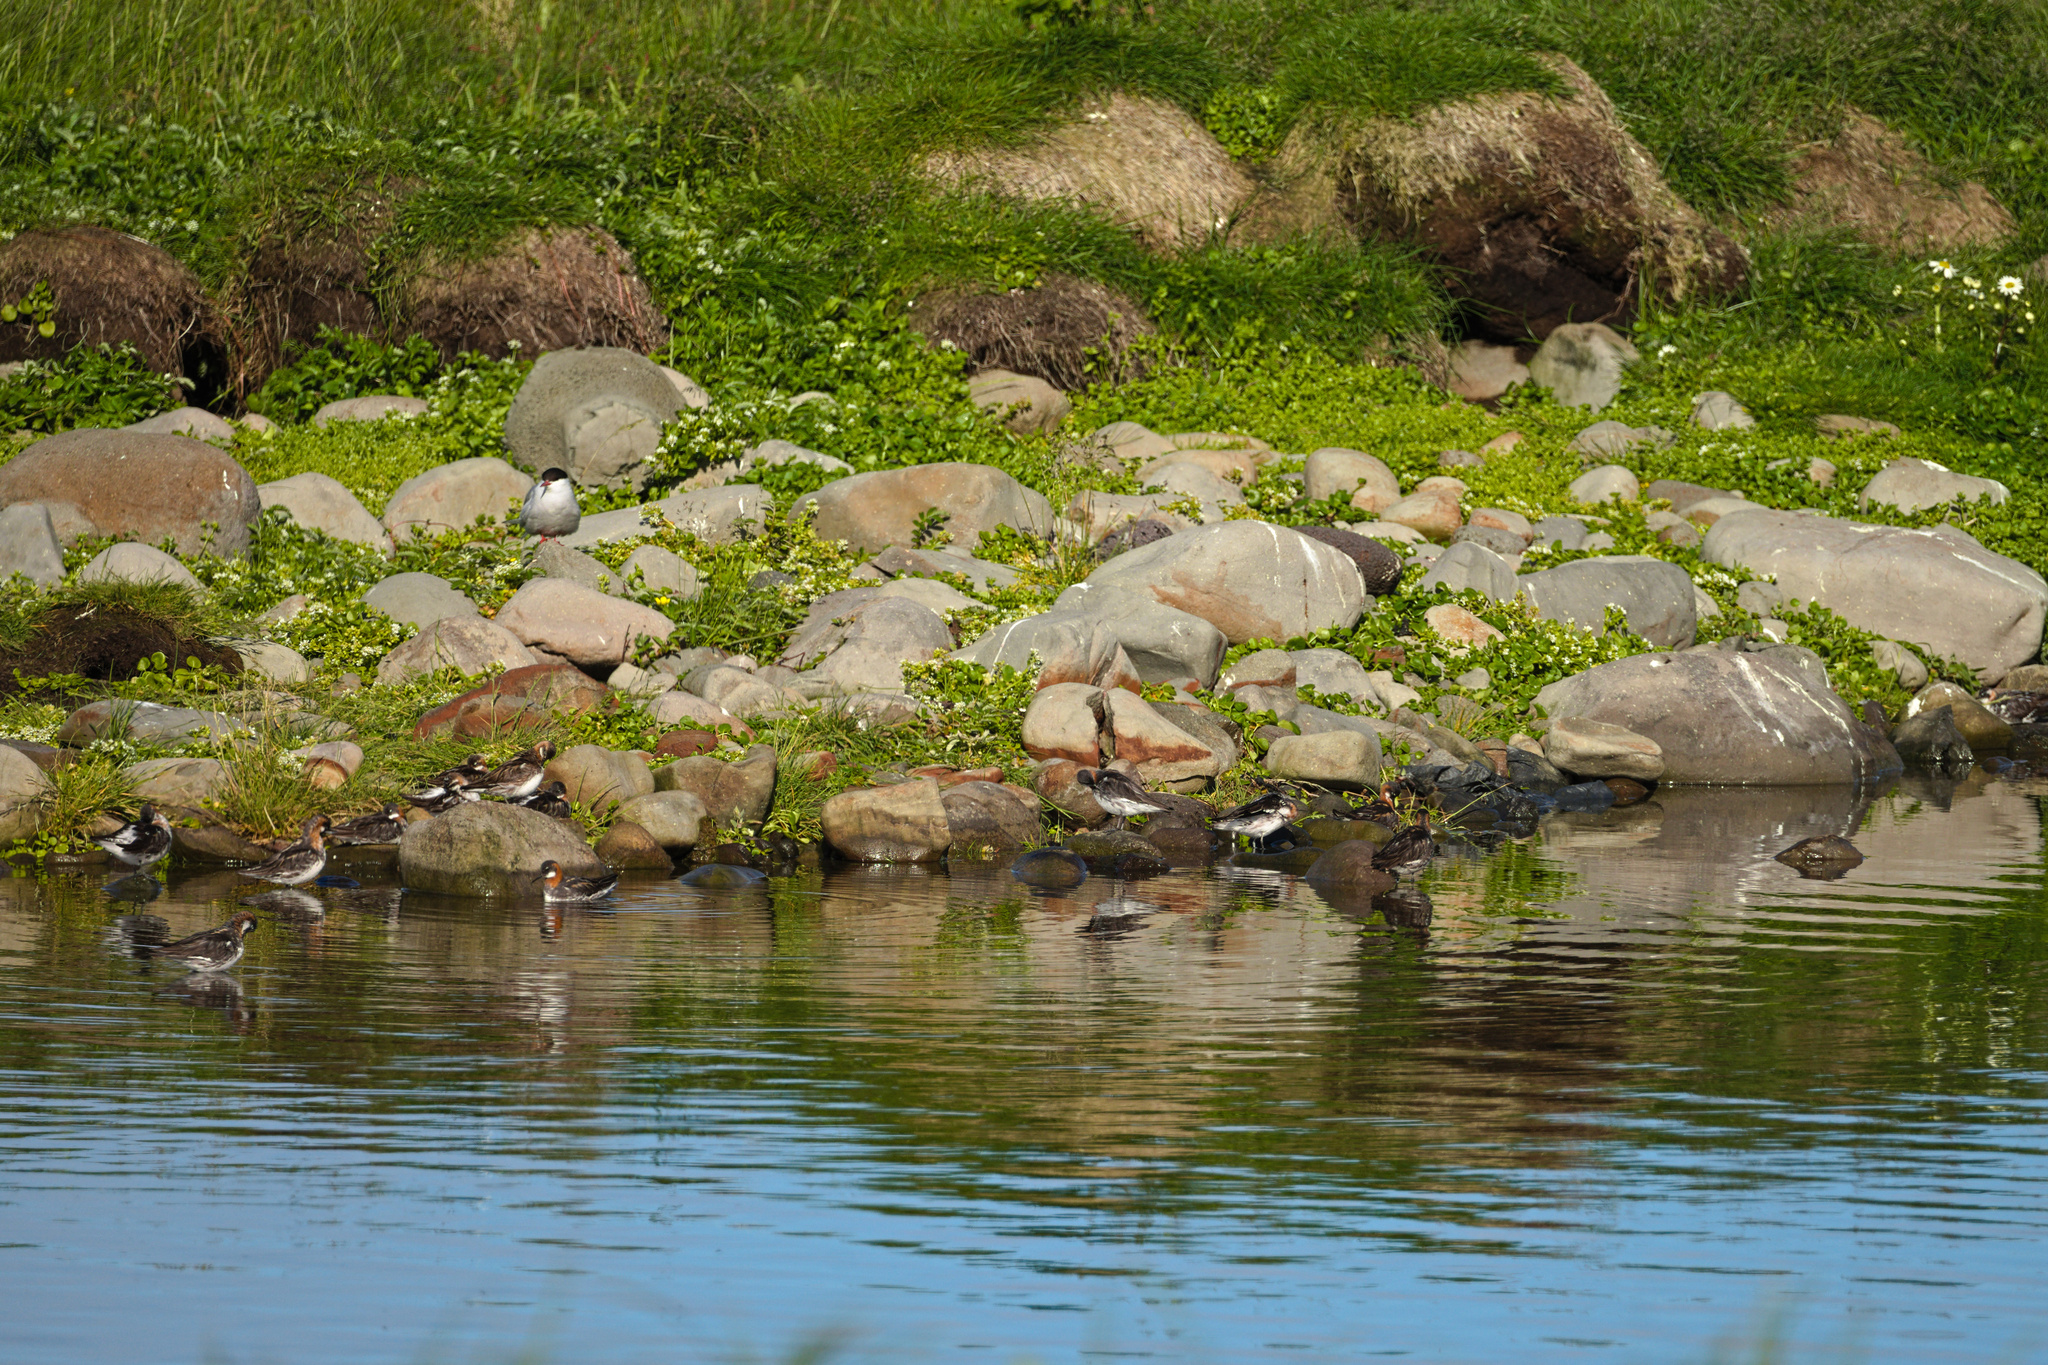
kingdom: Animalia
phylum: Chordata
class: Aves
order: Charadriiformes
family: Laridae
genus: Sterna
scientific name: Sterna paradisaea
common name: Arctic tern
